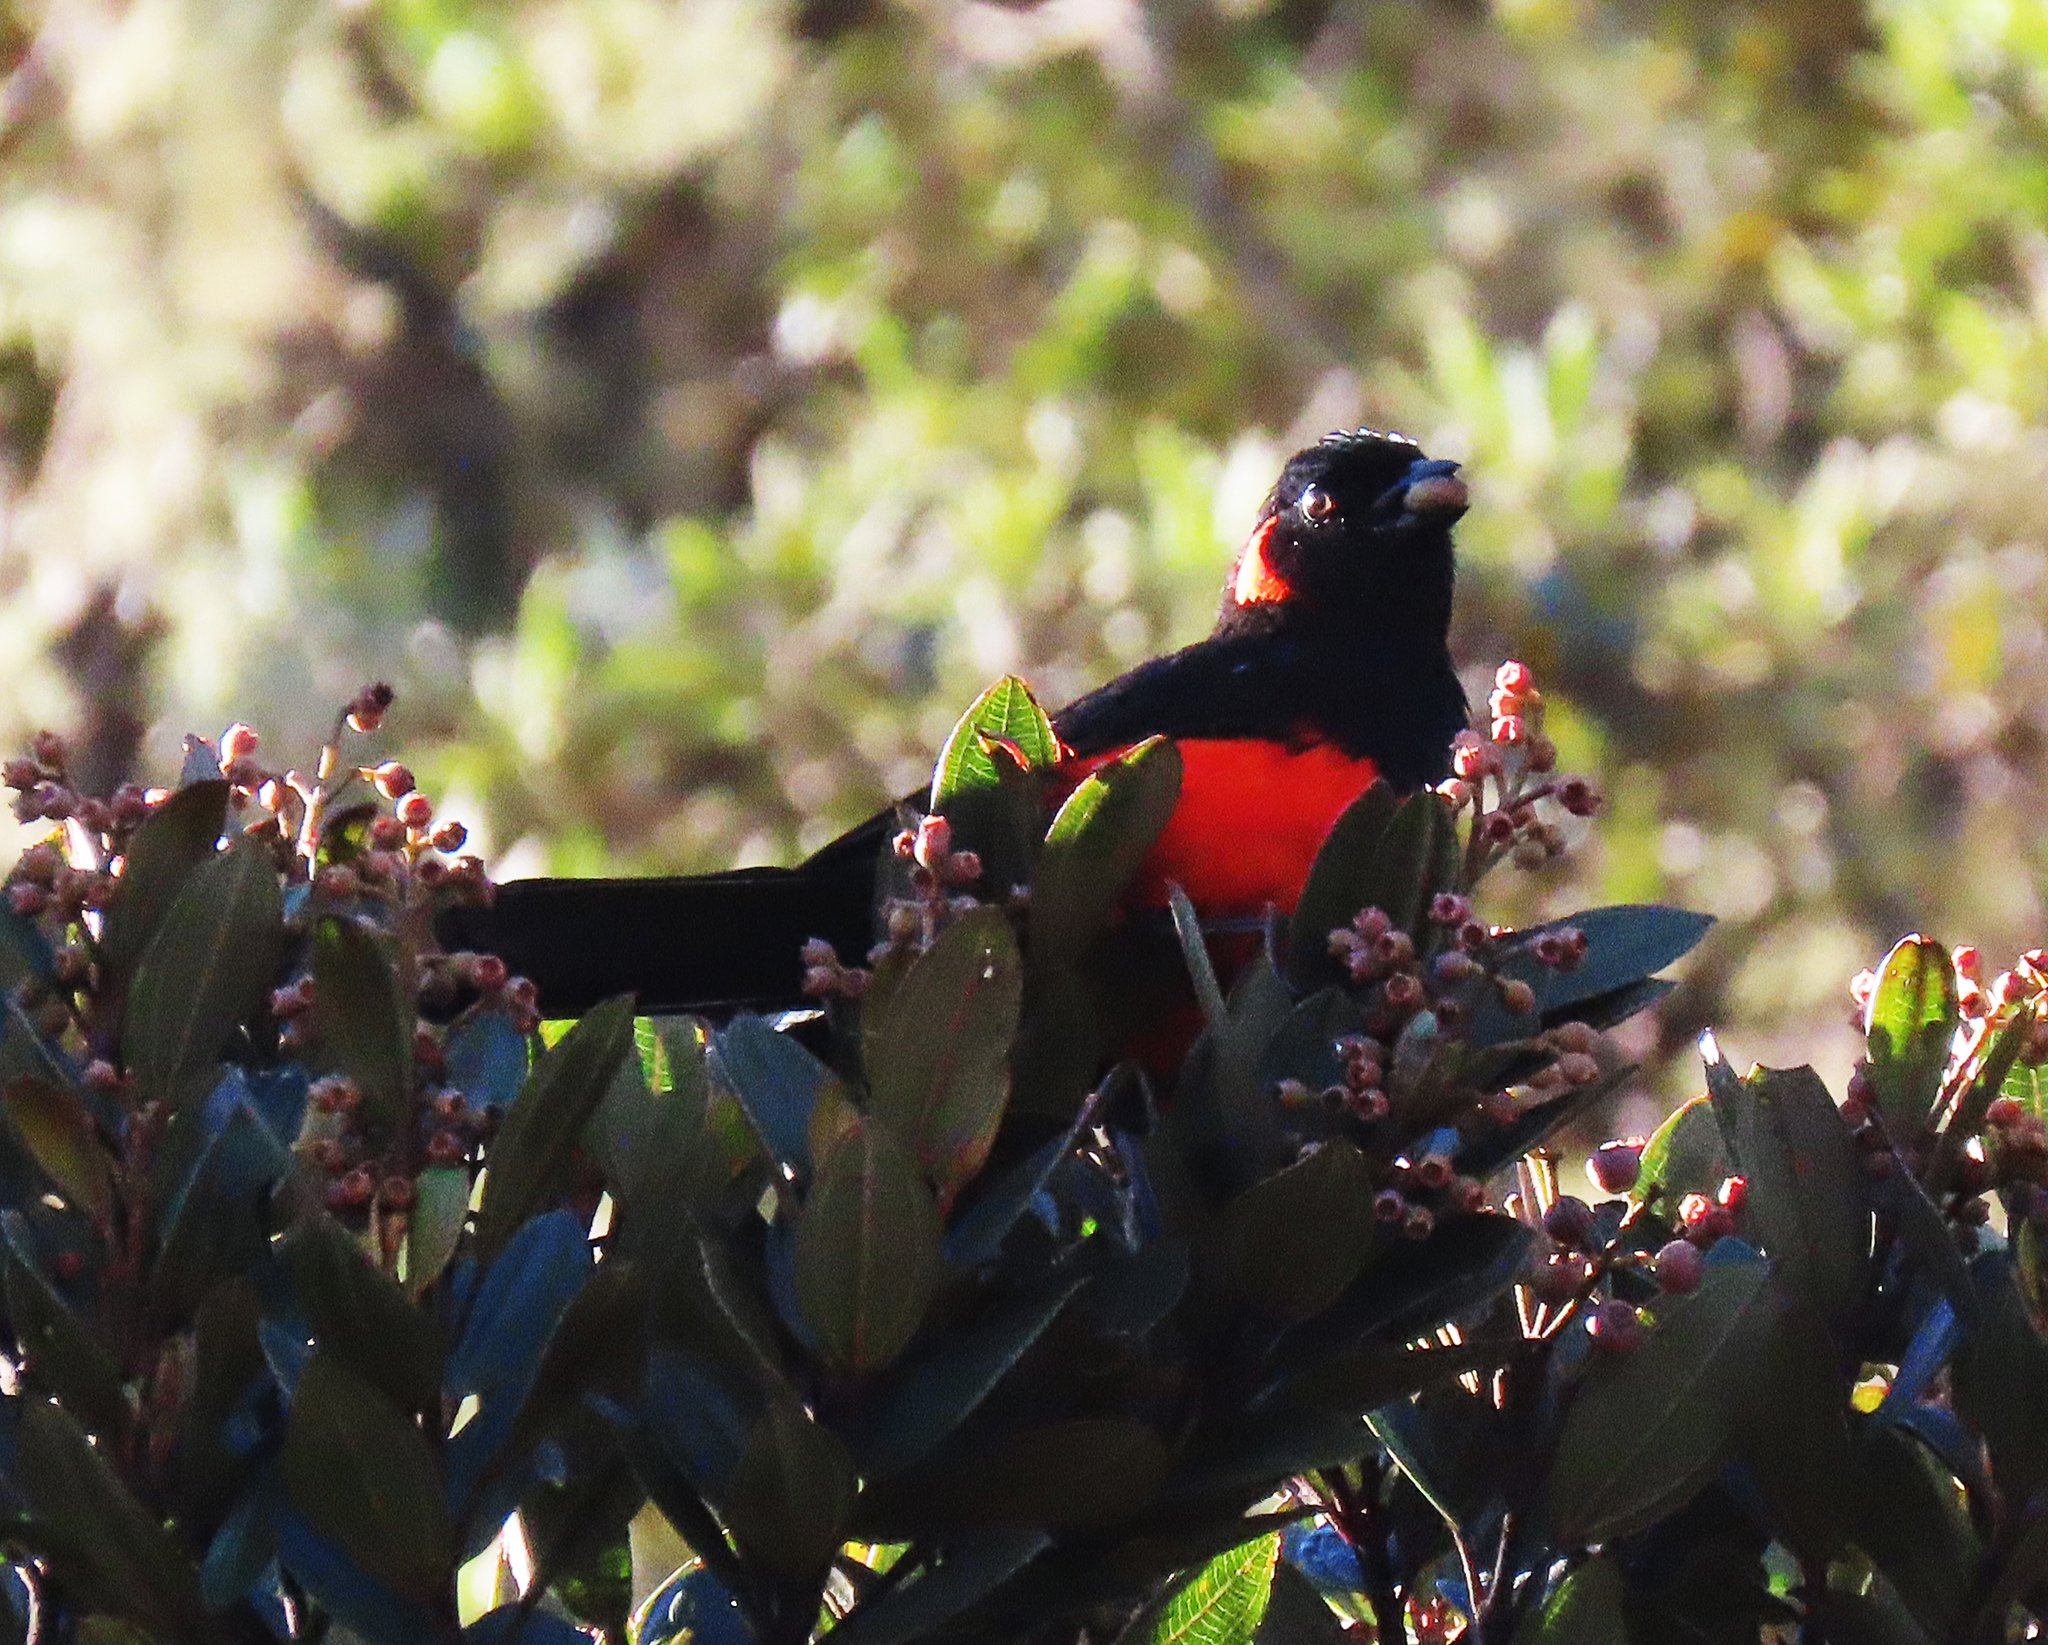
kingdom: Animalia
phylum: Chordata
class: Aves
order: Passeriformes
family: Thraupidae
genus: Anisognathus
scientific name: Anisognathus igniventris
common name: Scarlet-bellied mountain tanager
